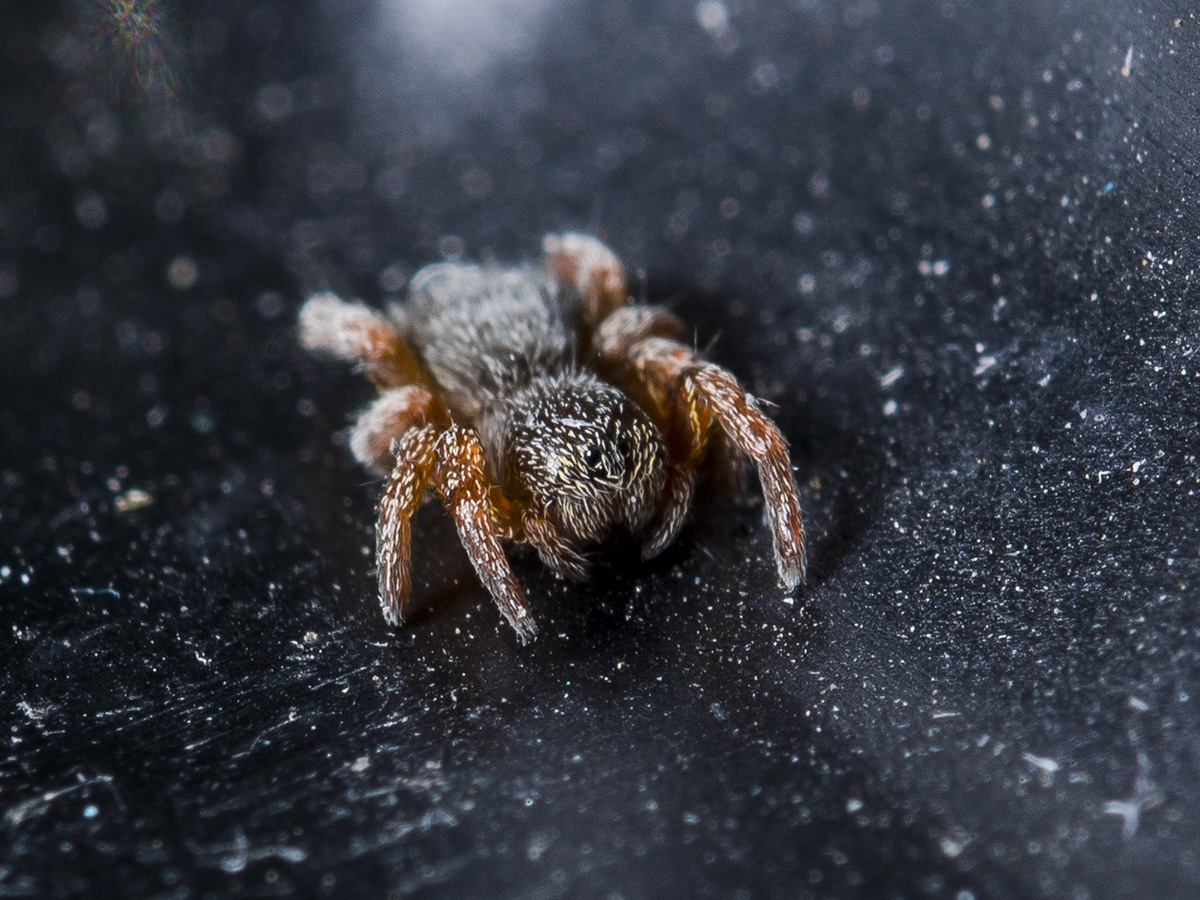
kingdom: Animalia
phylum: Arthropoda
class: Arachnida
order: Araneae
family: Eresidae
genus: Stegodyphus
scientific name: Stegodyphus lineatus
